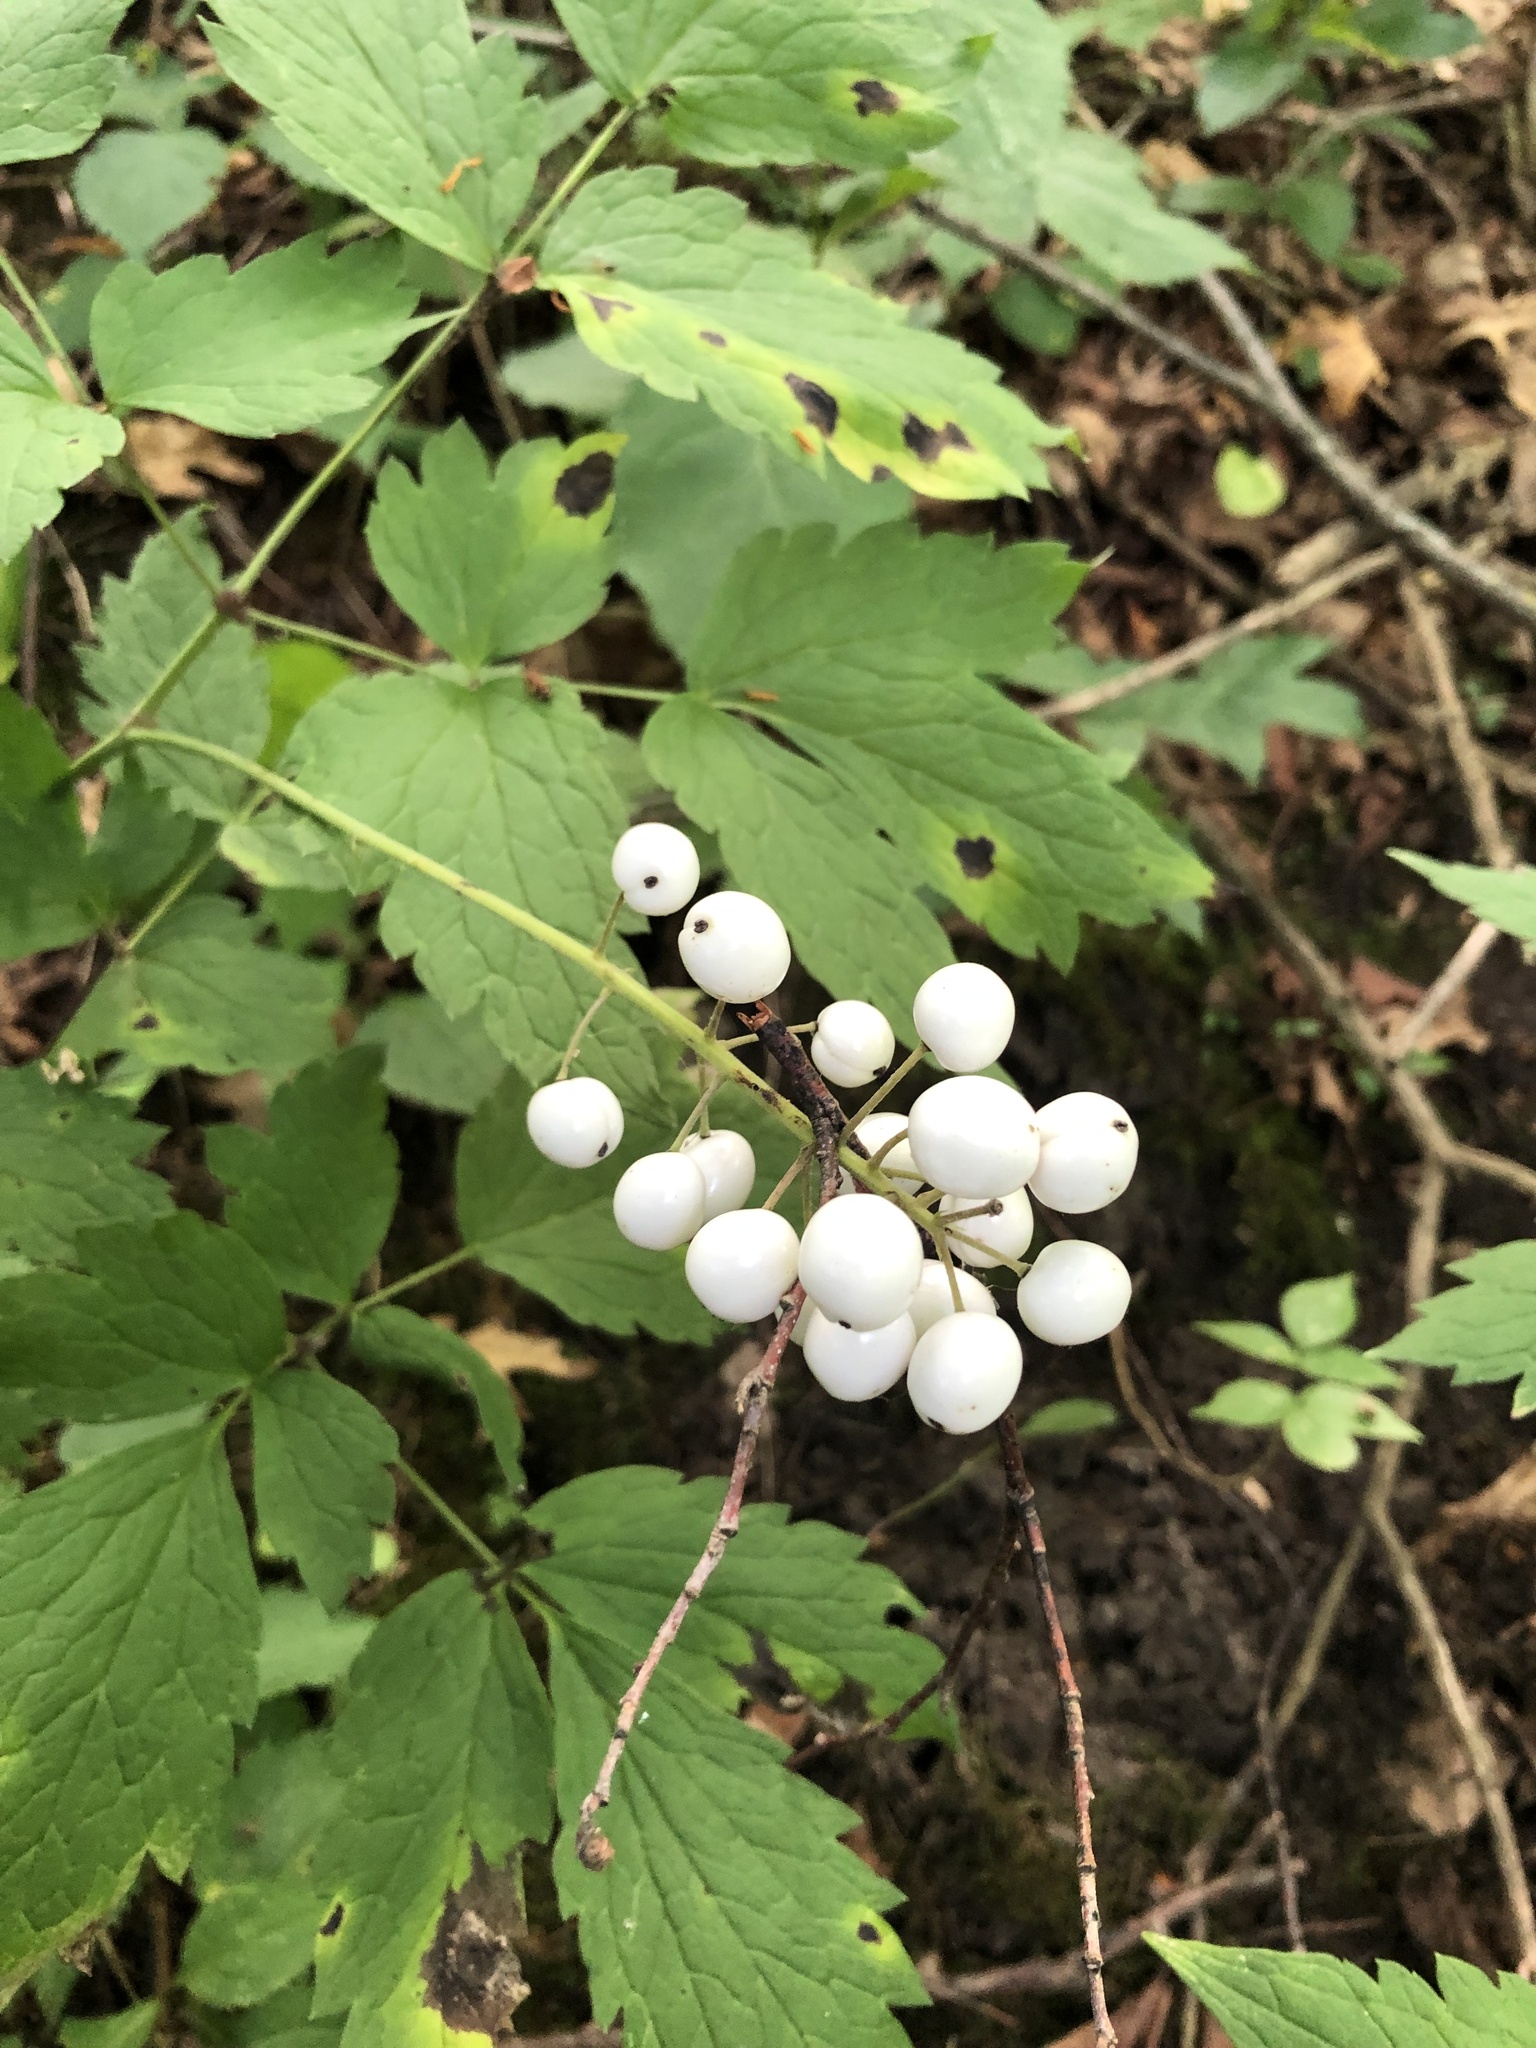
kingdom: Plantae
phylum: Tracheophyta
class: Magnoliopsida
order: Ranunculales
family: Ranunculaceae
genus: Actaea
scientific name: Actaea rubra
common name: Red baneberry
